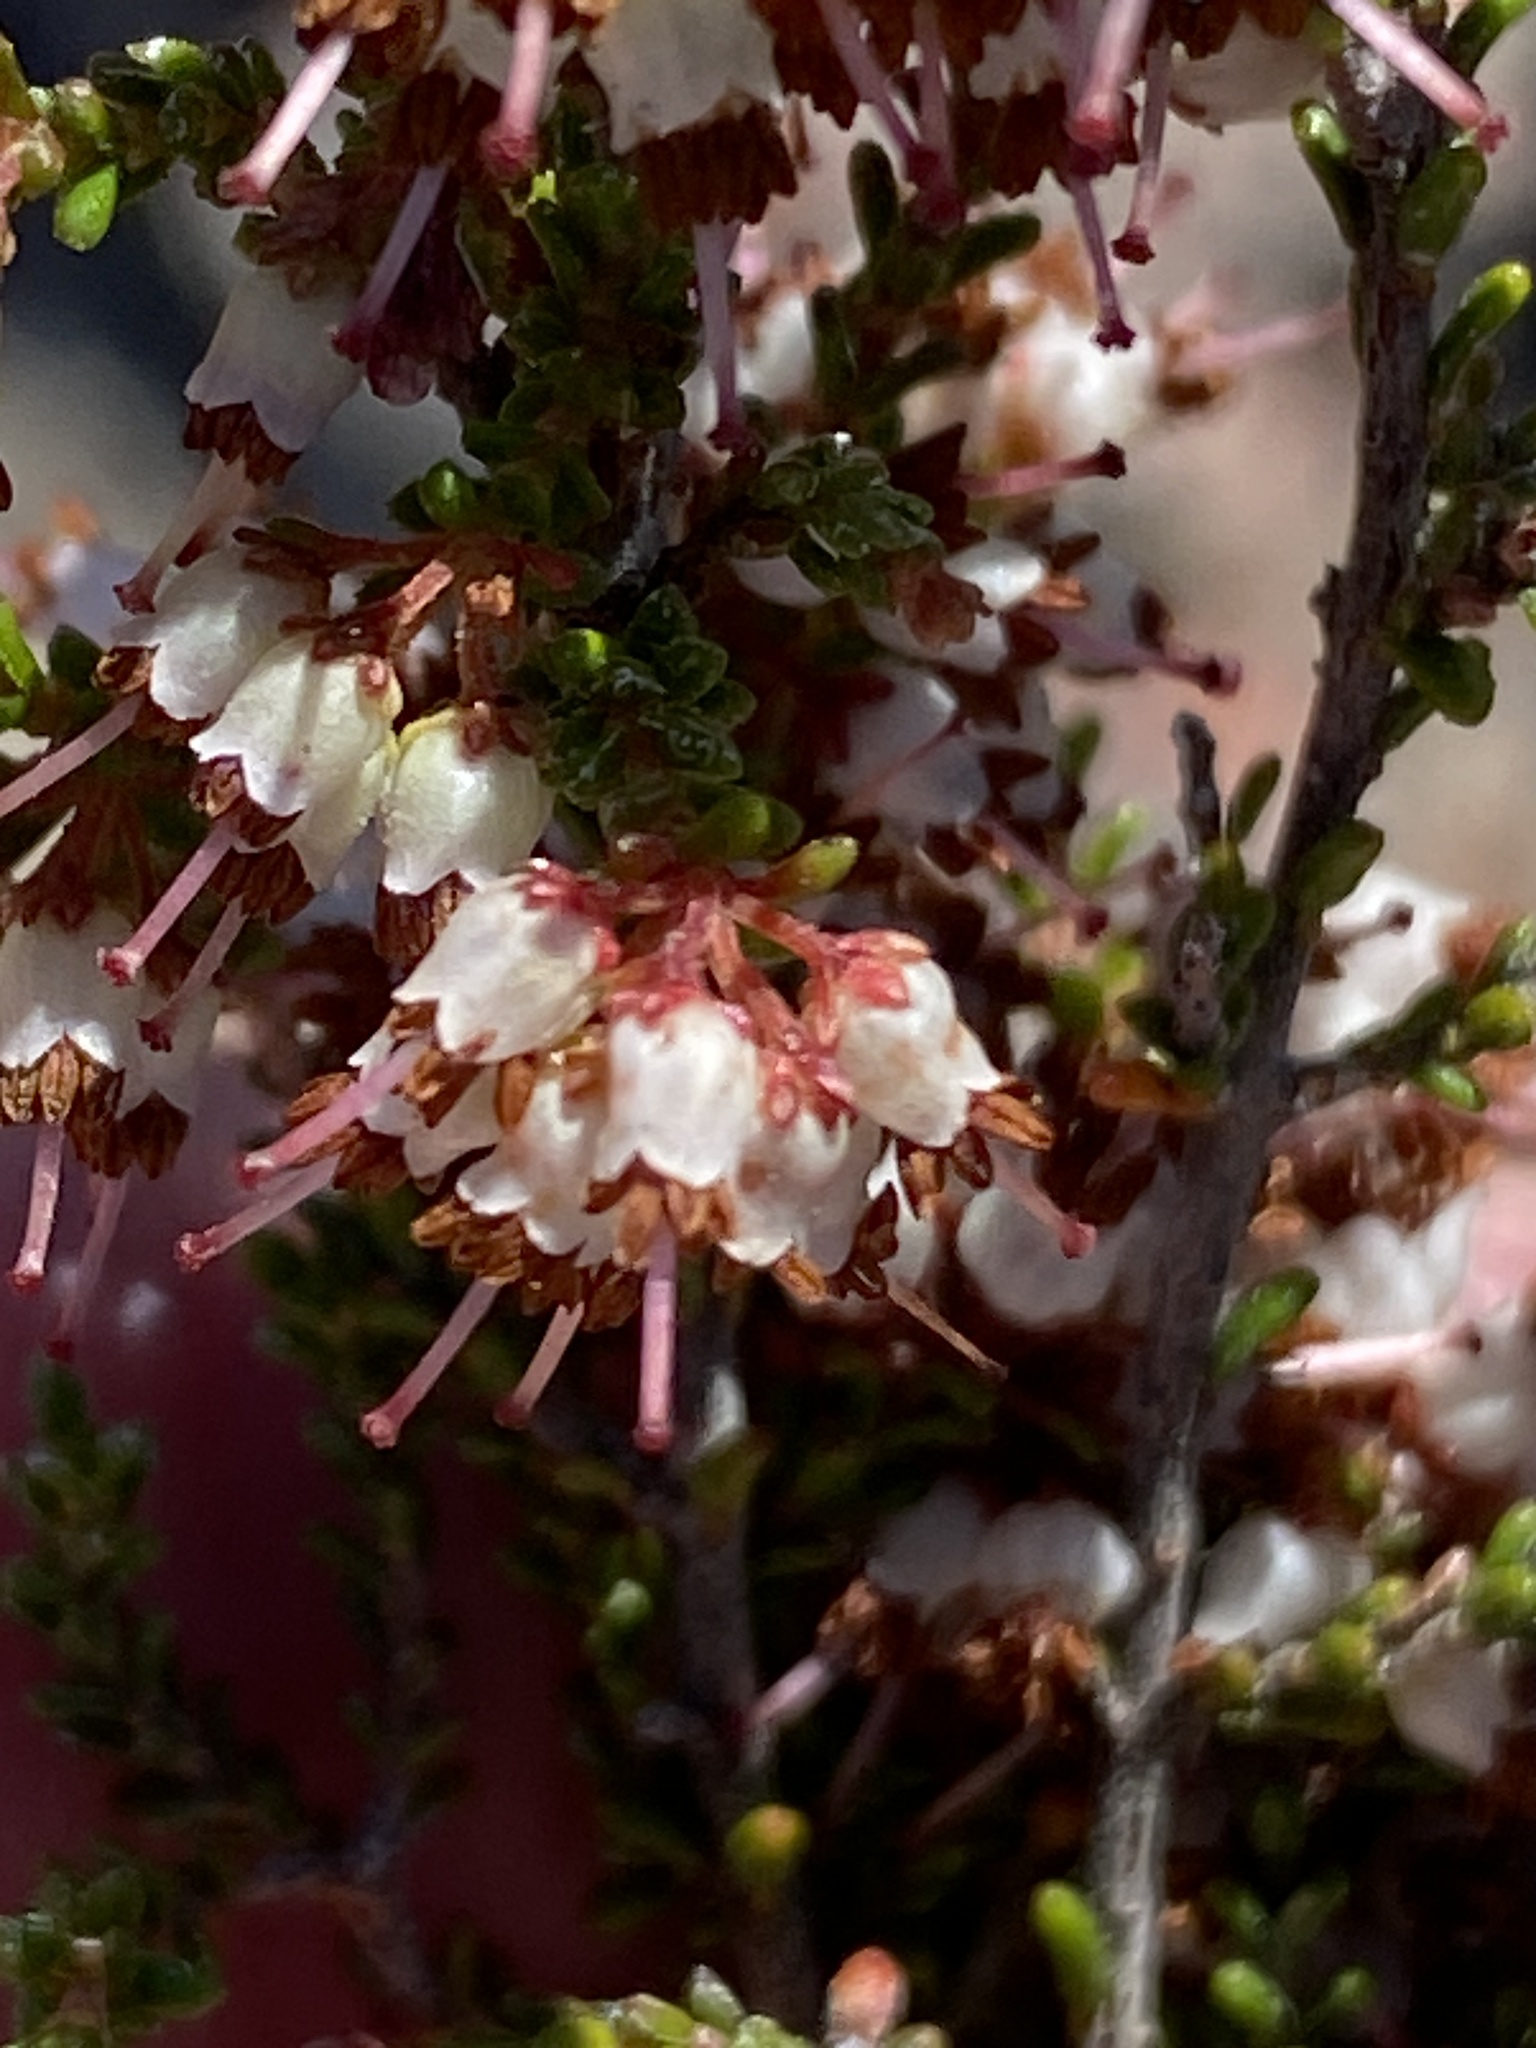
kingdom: Plantae
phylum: Tracheophyta
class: Magnoliopsida
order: Ericales
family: Ericaceae
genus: Erica
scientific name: Erica kougabergensis
